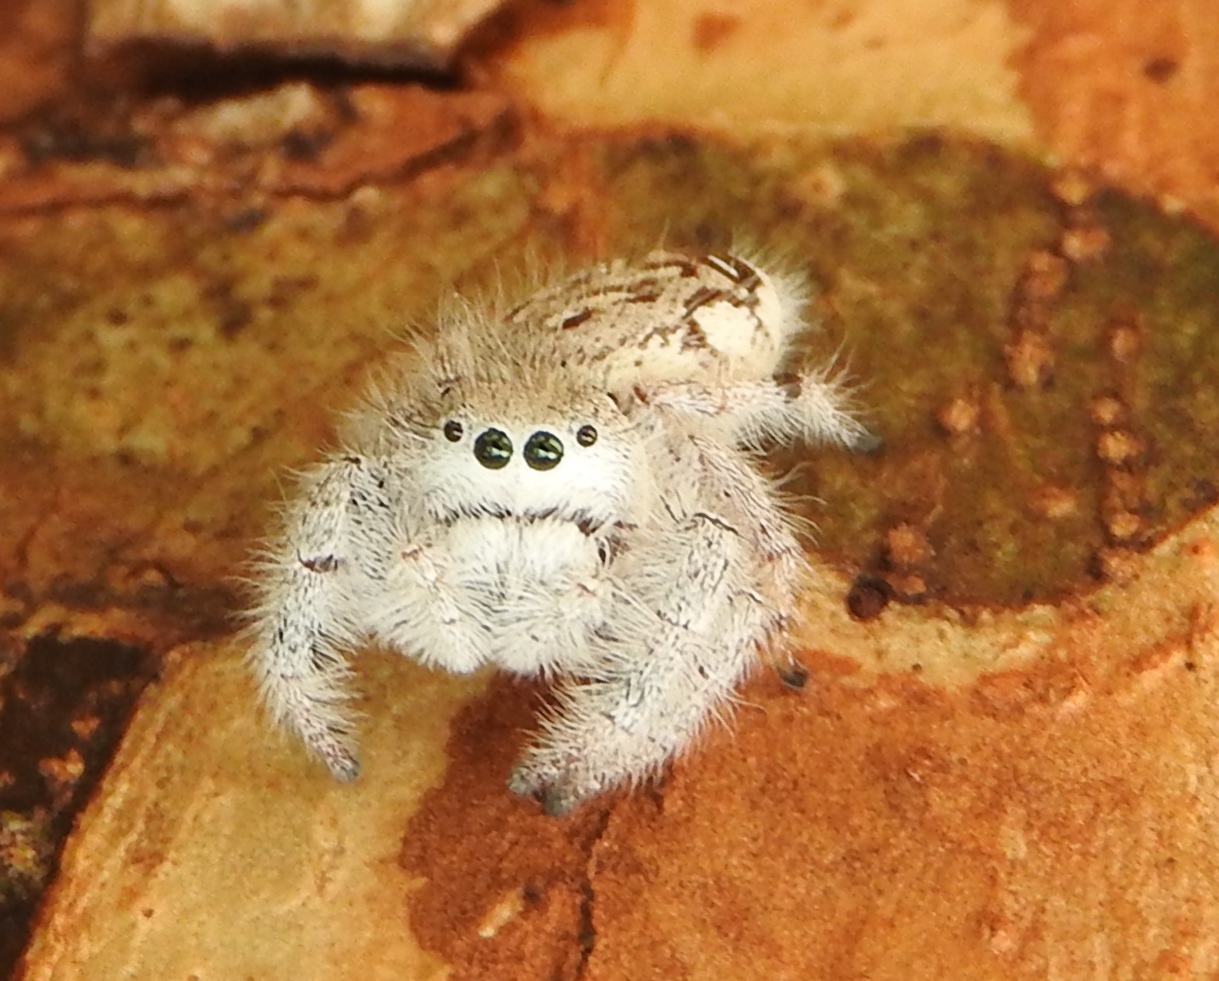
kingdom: Animalia
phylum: Arthropoda
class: Arachnida
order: Araneae
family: Salticidae
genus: Paraphidippus
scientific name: Paraphidippus fartilis
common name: Jumping spiders
